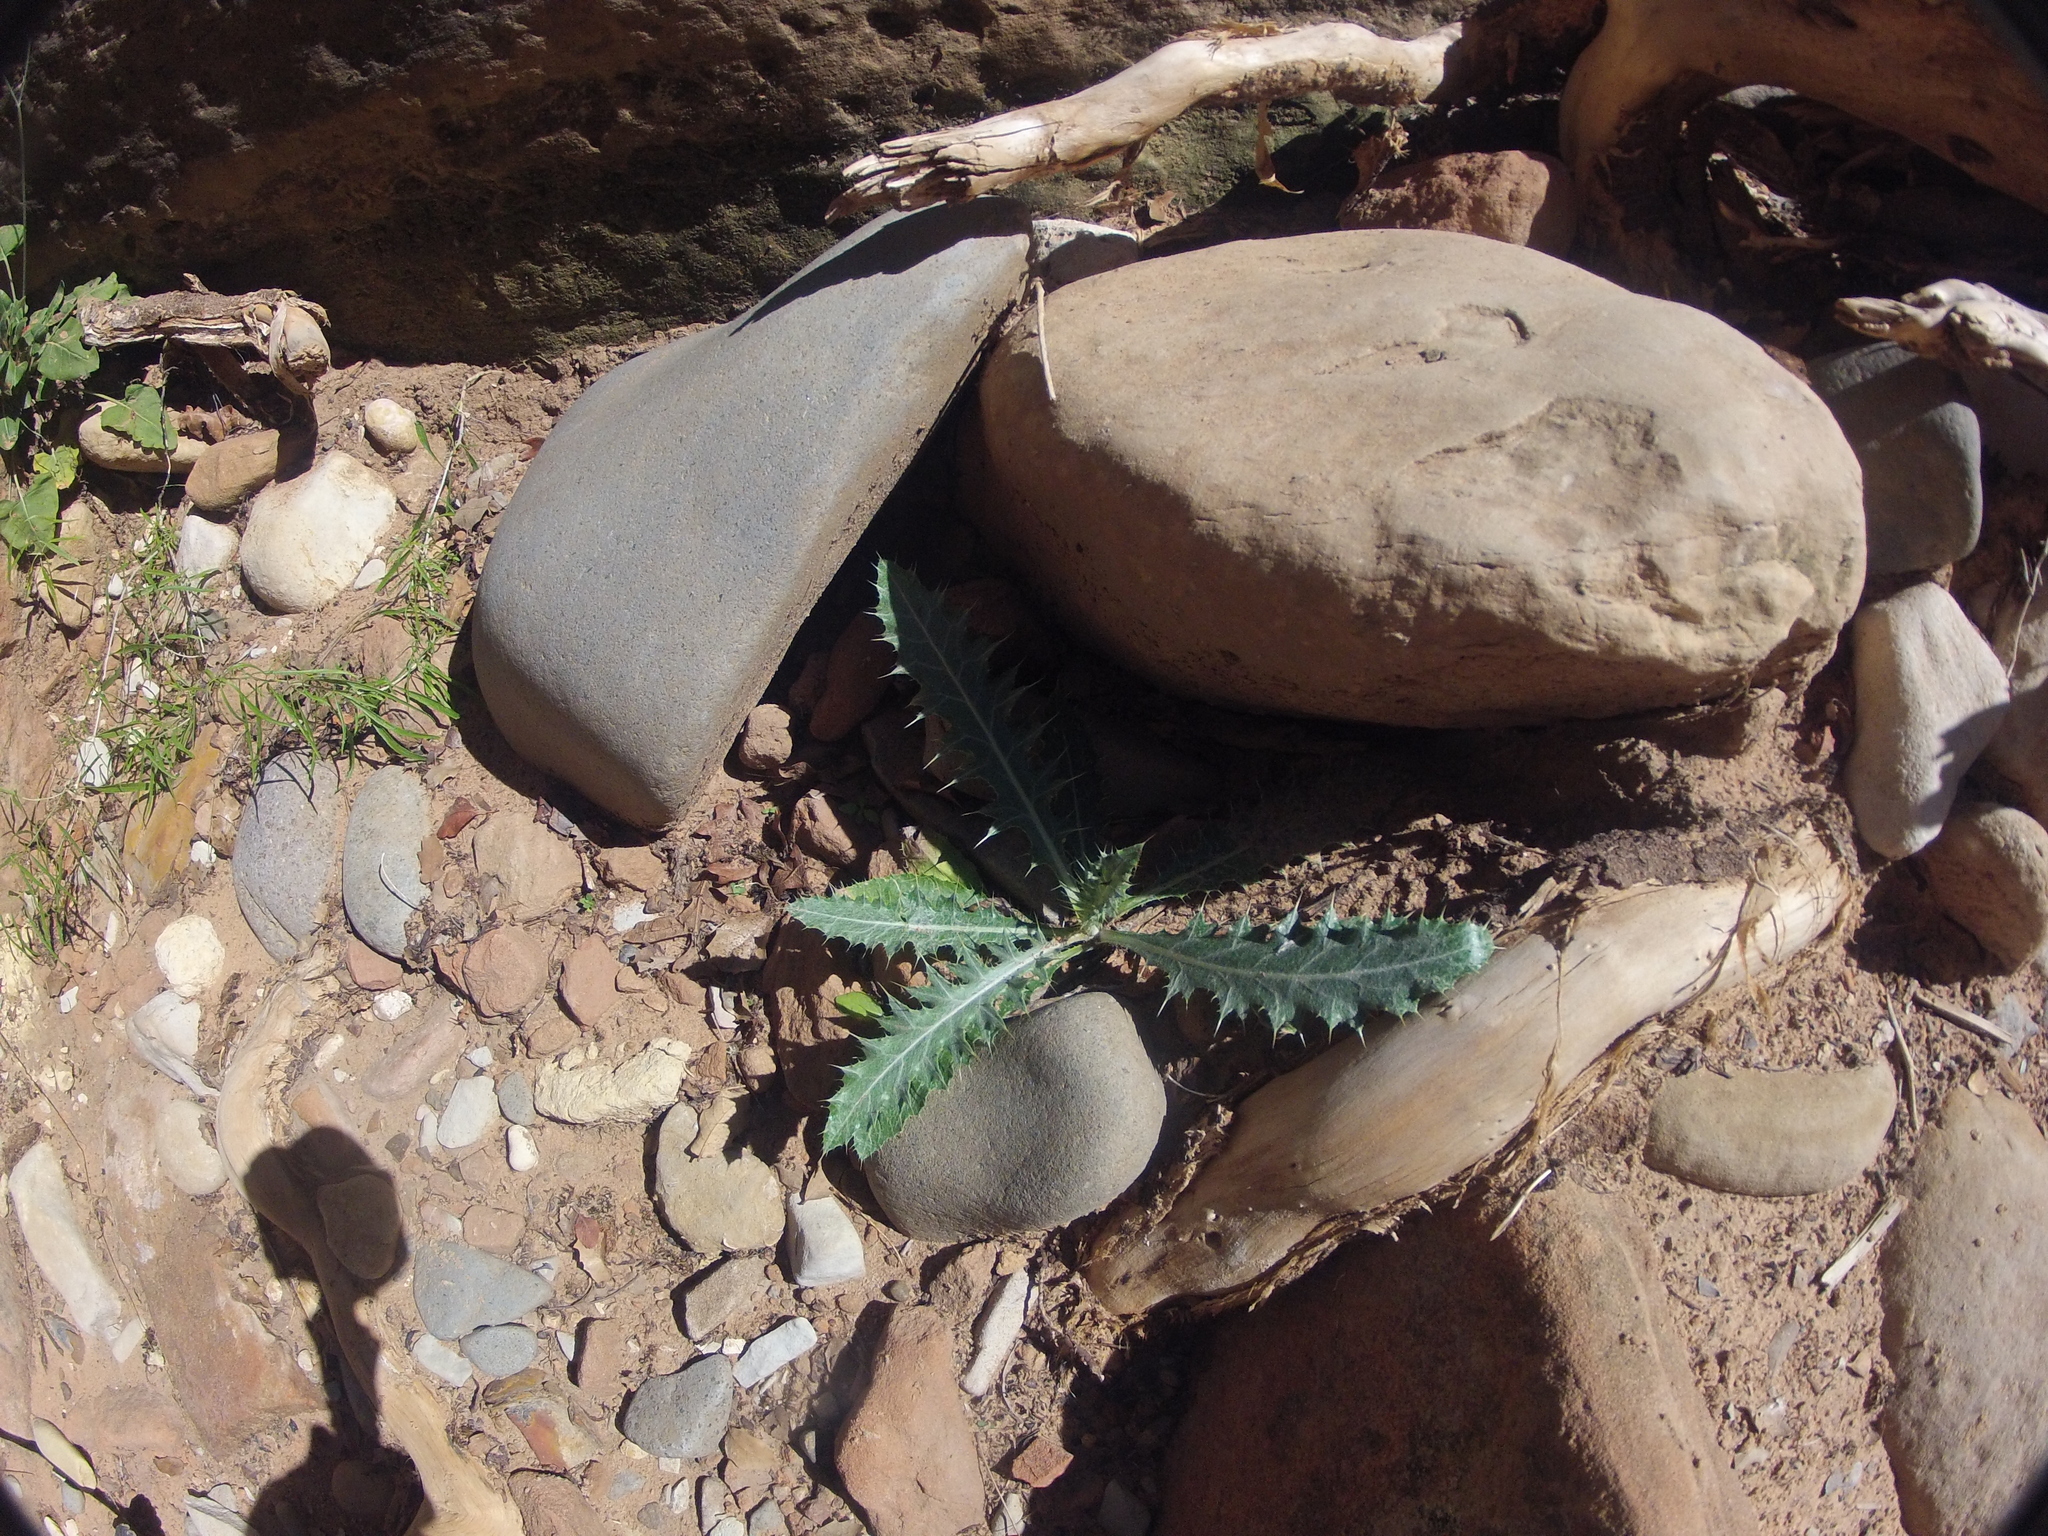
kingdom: Plantae
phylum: Tracheophyta
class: Magnoliopsida
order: Asterales
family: Asteraceae
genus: Cirsium
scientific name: Cirsium arizonicum
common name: Arizona thistle
